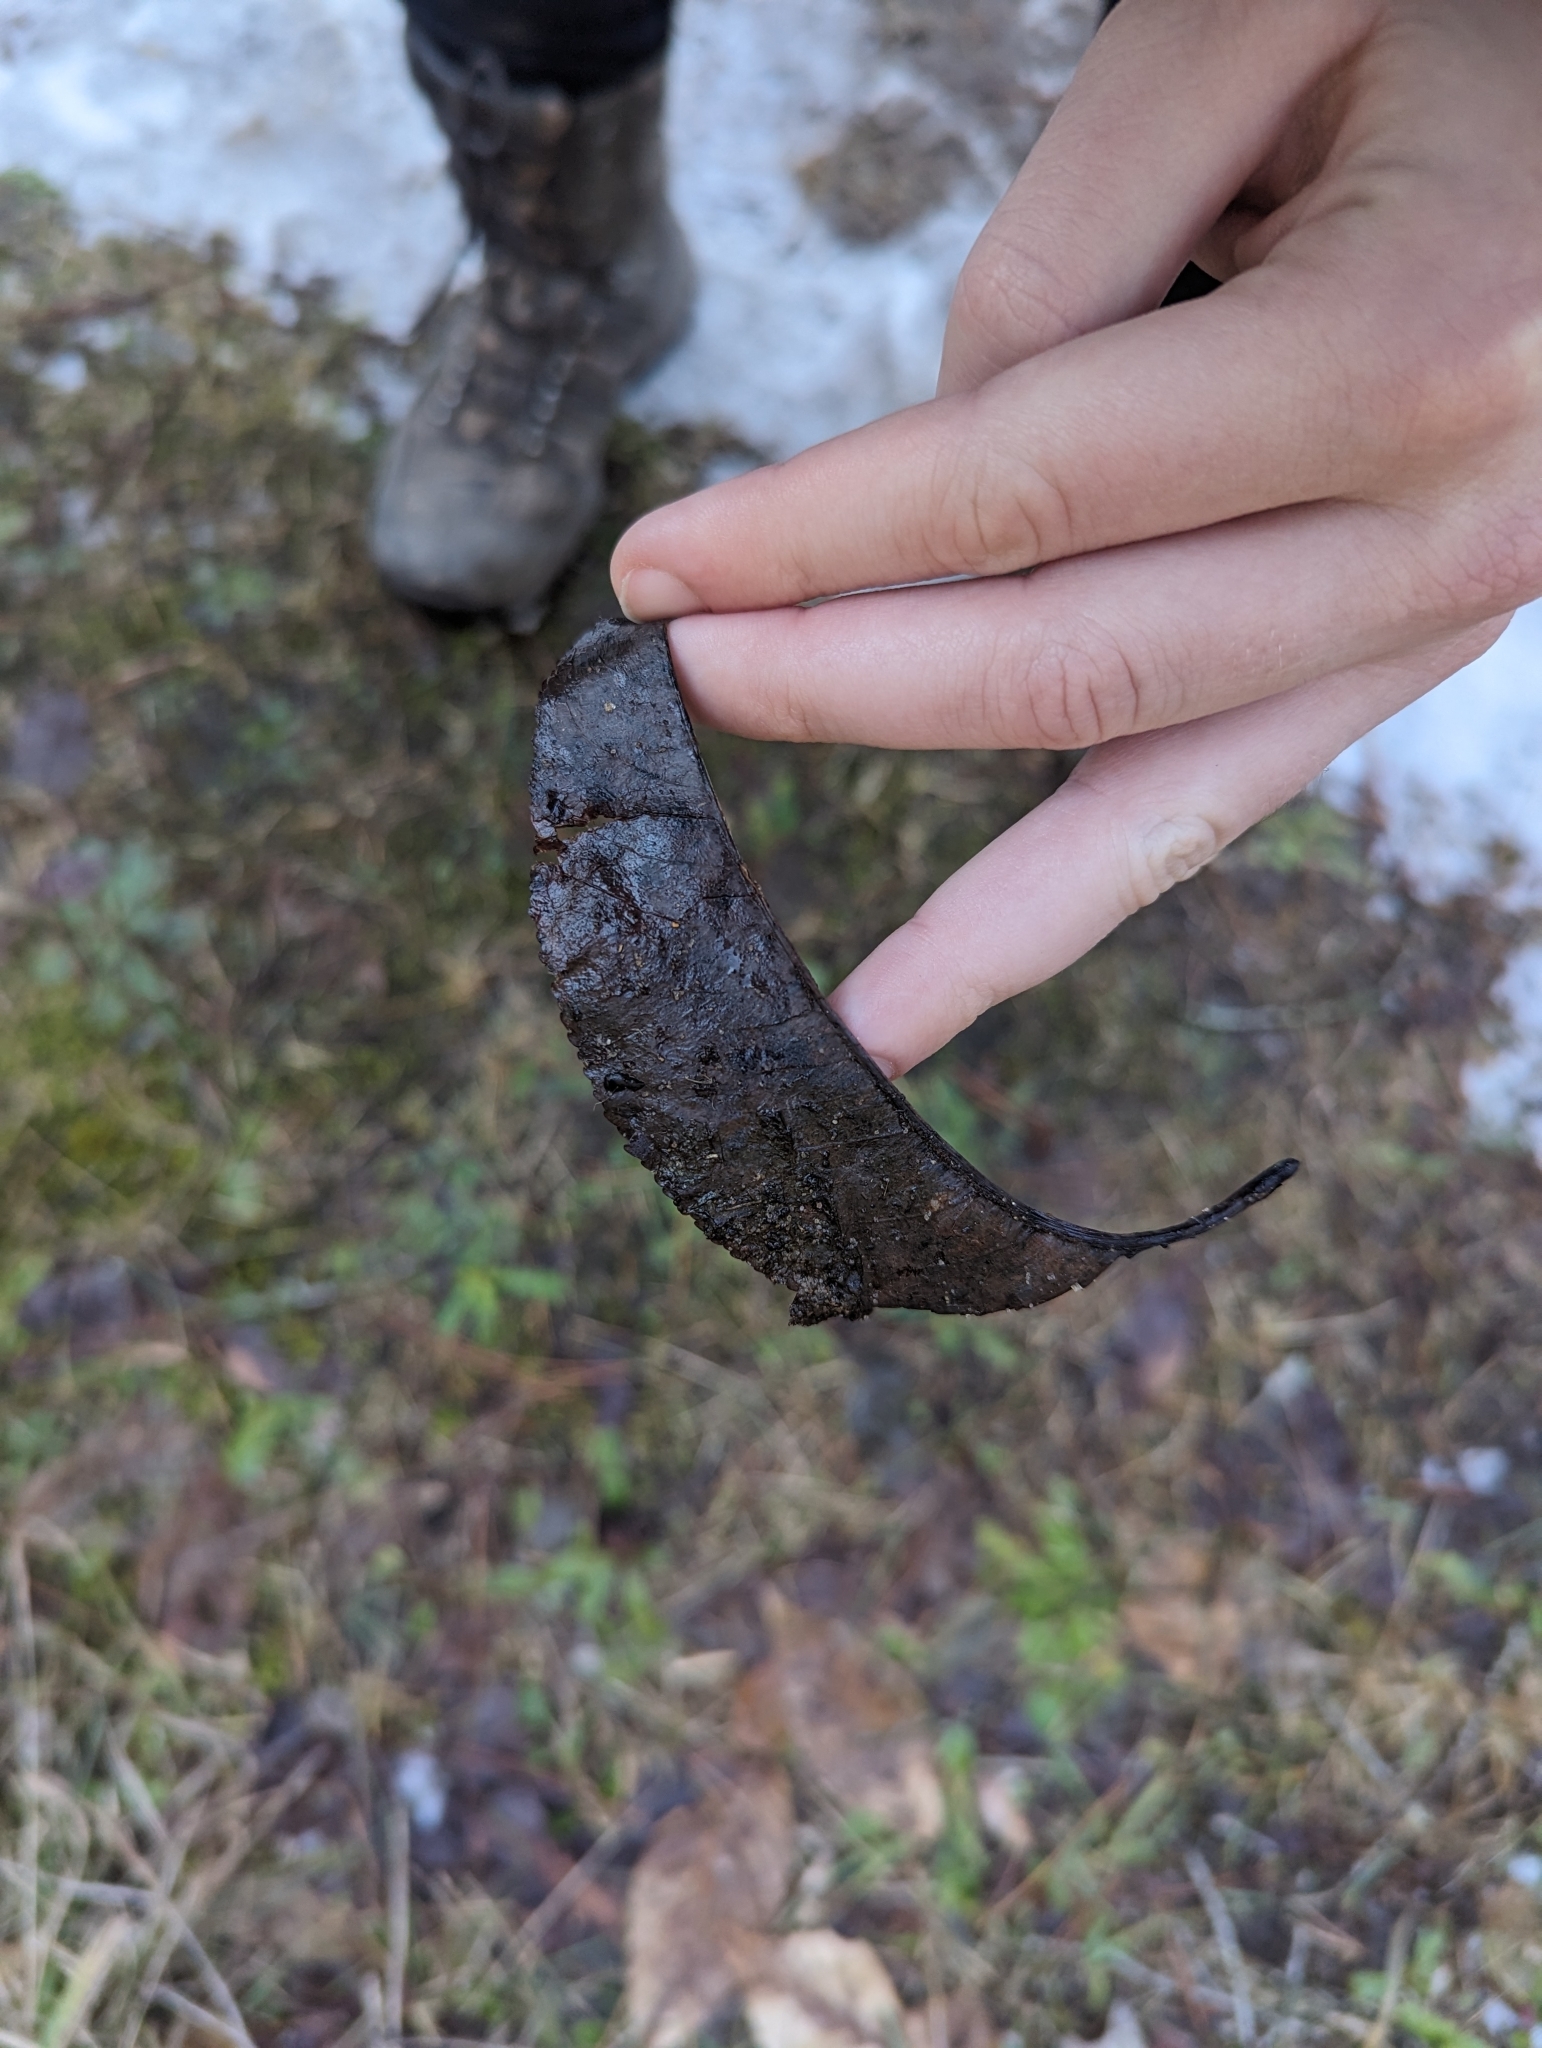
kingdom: Plantae
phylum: Tracheophyta
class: Magnoliopsida
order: Fabales
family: Fabaceae
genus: Gleditsia
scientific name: Gleditsia triacanthos
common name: Common honeylocust
